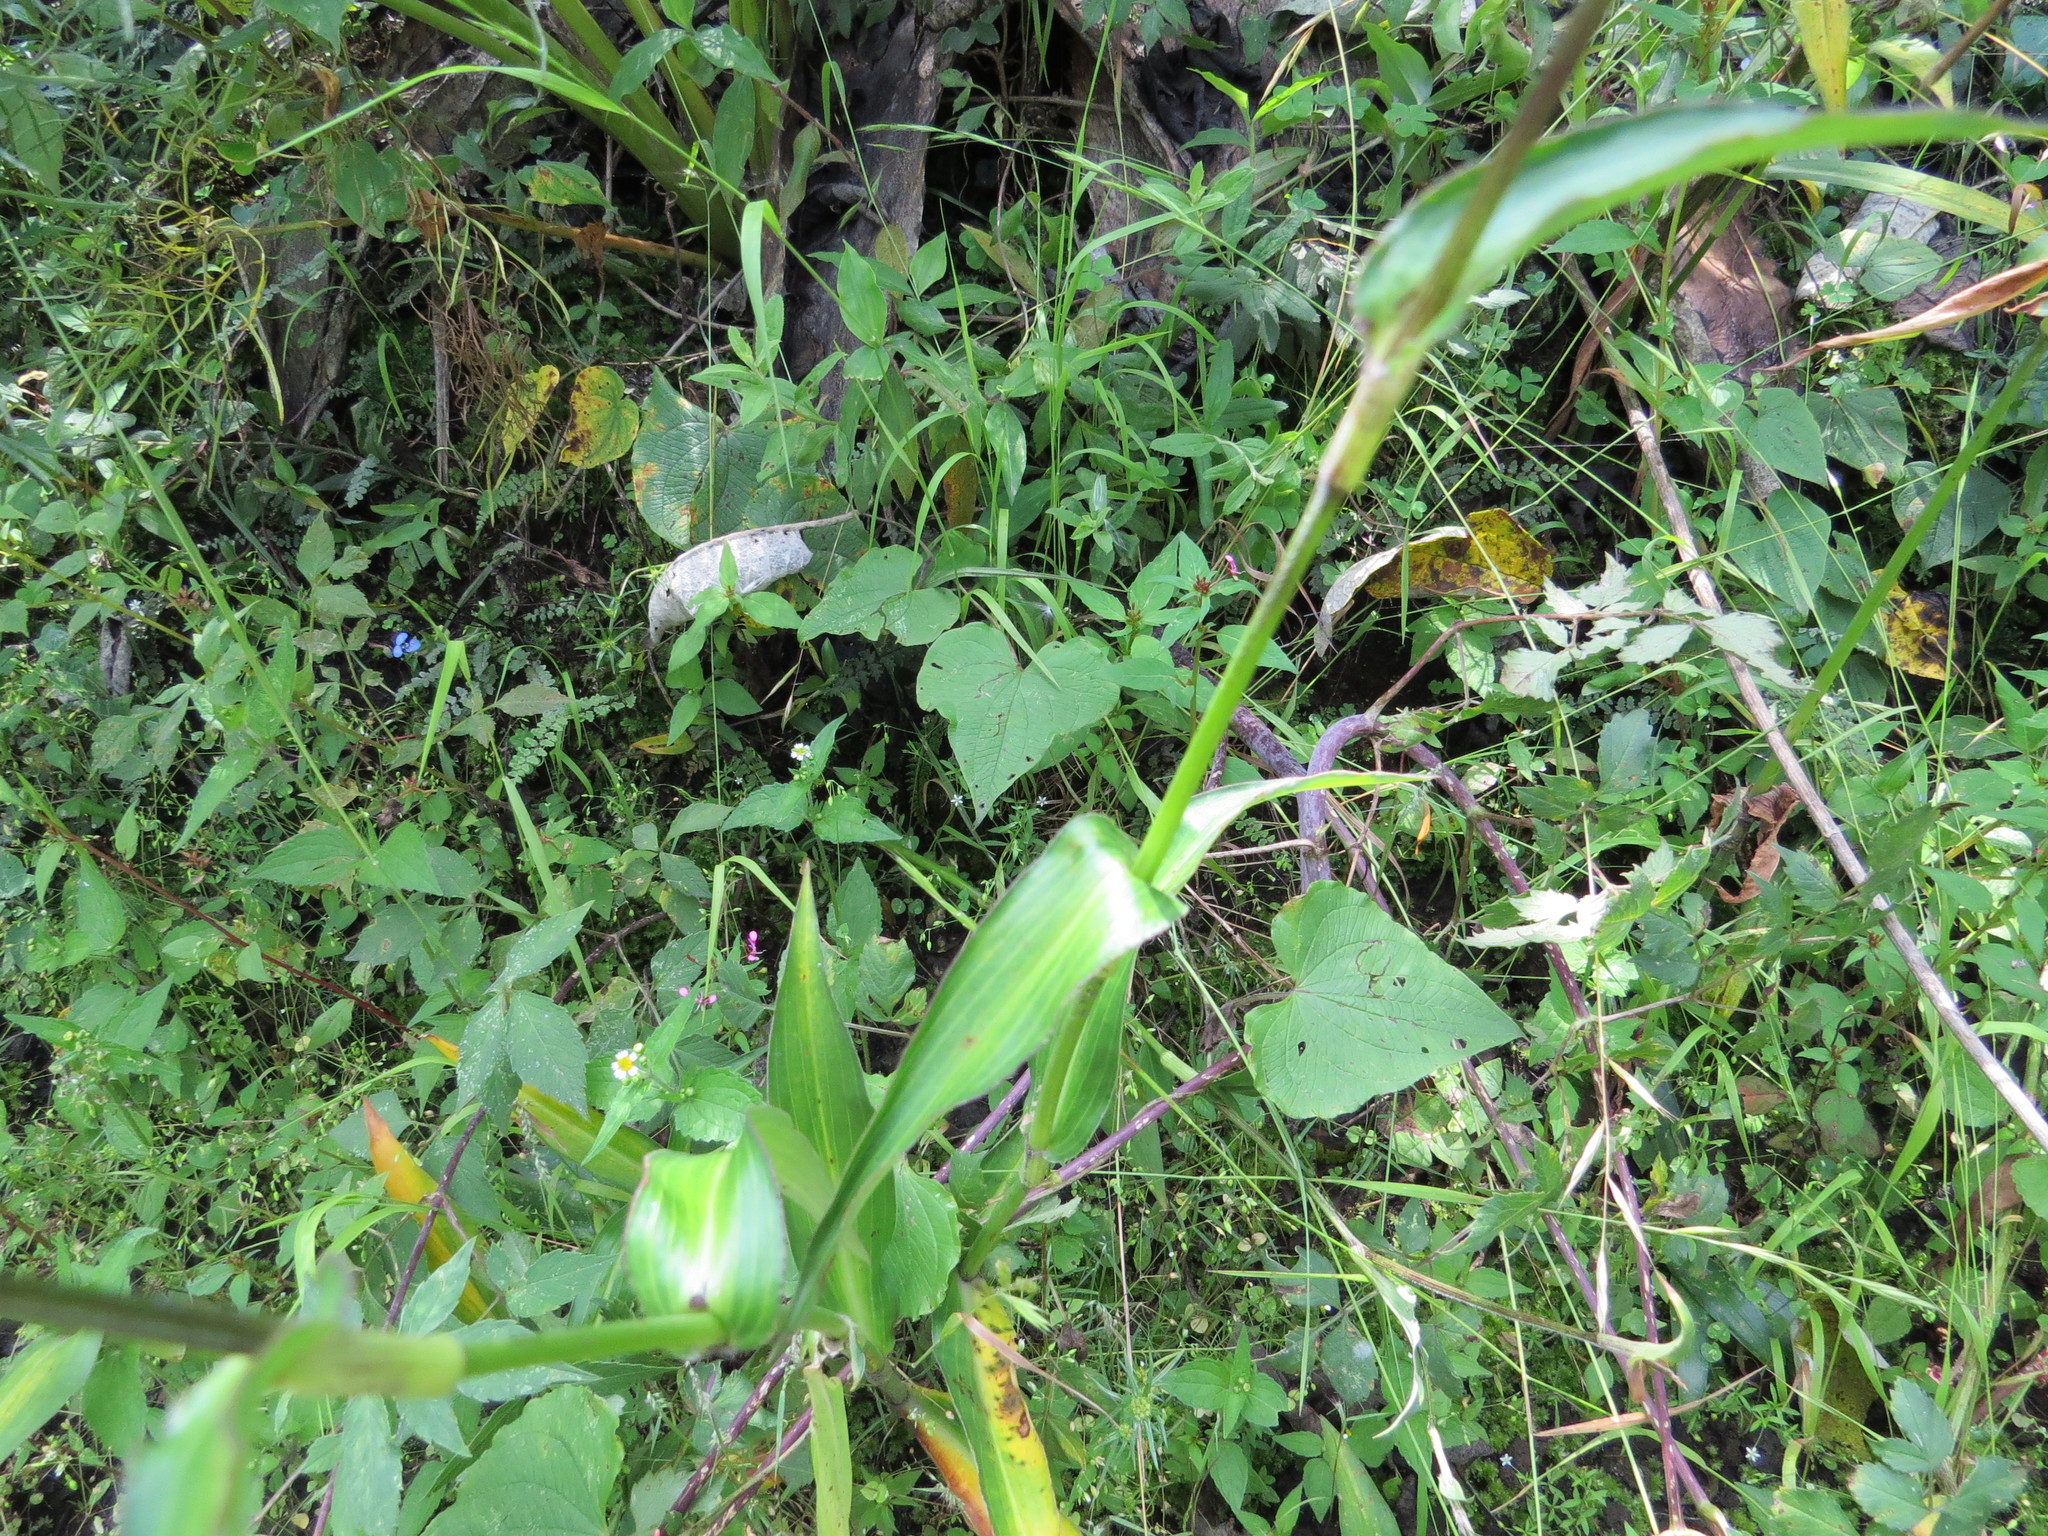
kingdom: Plantae
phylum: Tracheophyta
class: Liliopsida
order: Commelinales
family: Commelinaceae
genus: Commelina
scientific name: Commelina tuberosa
